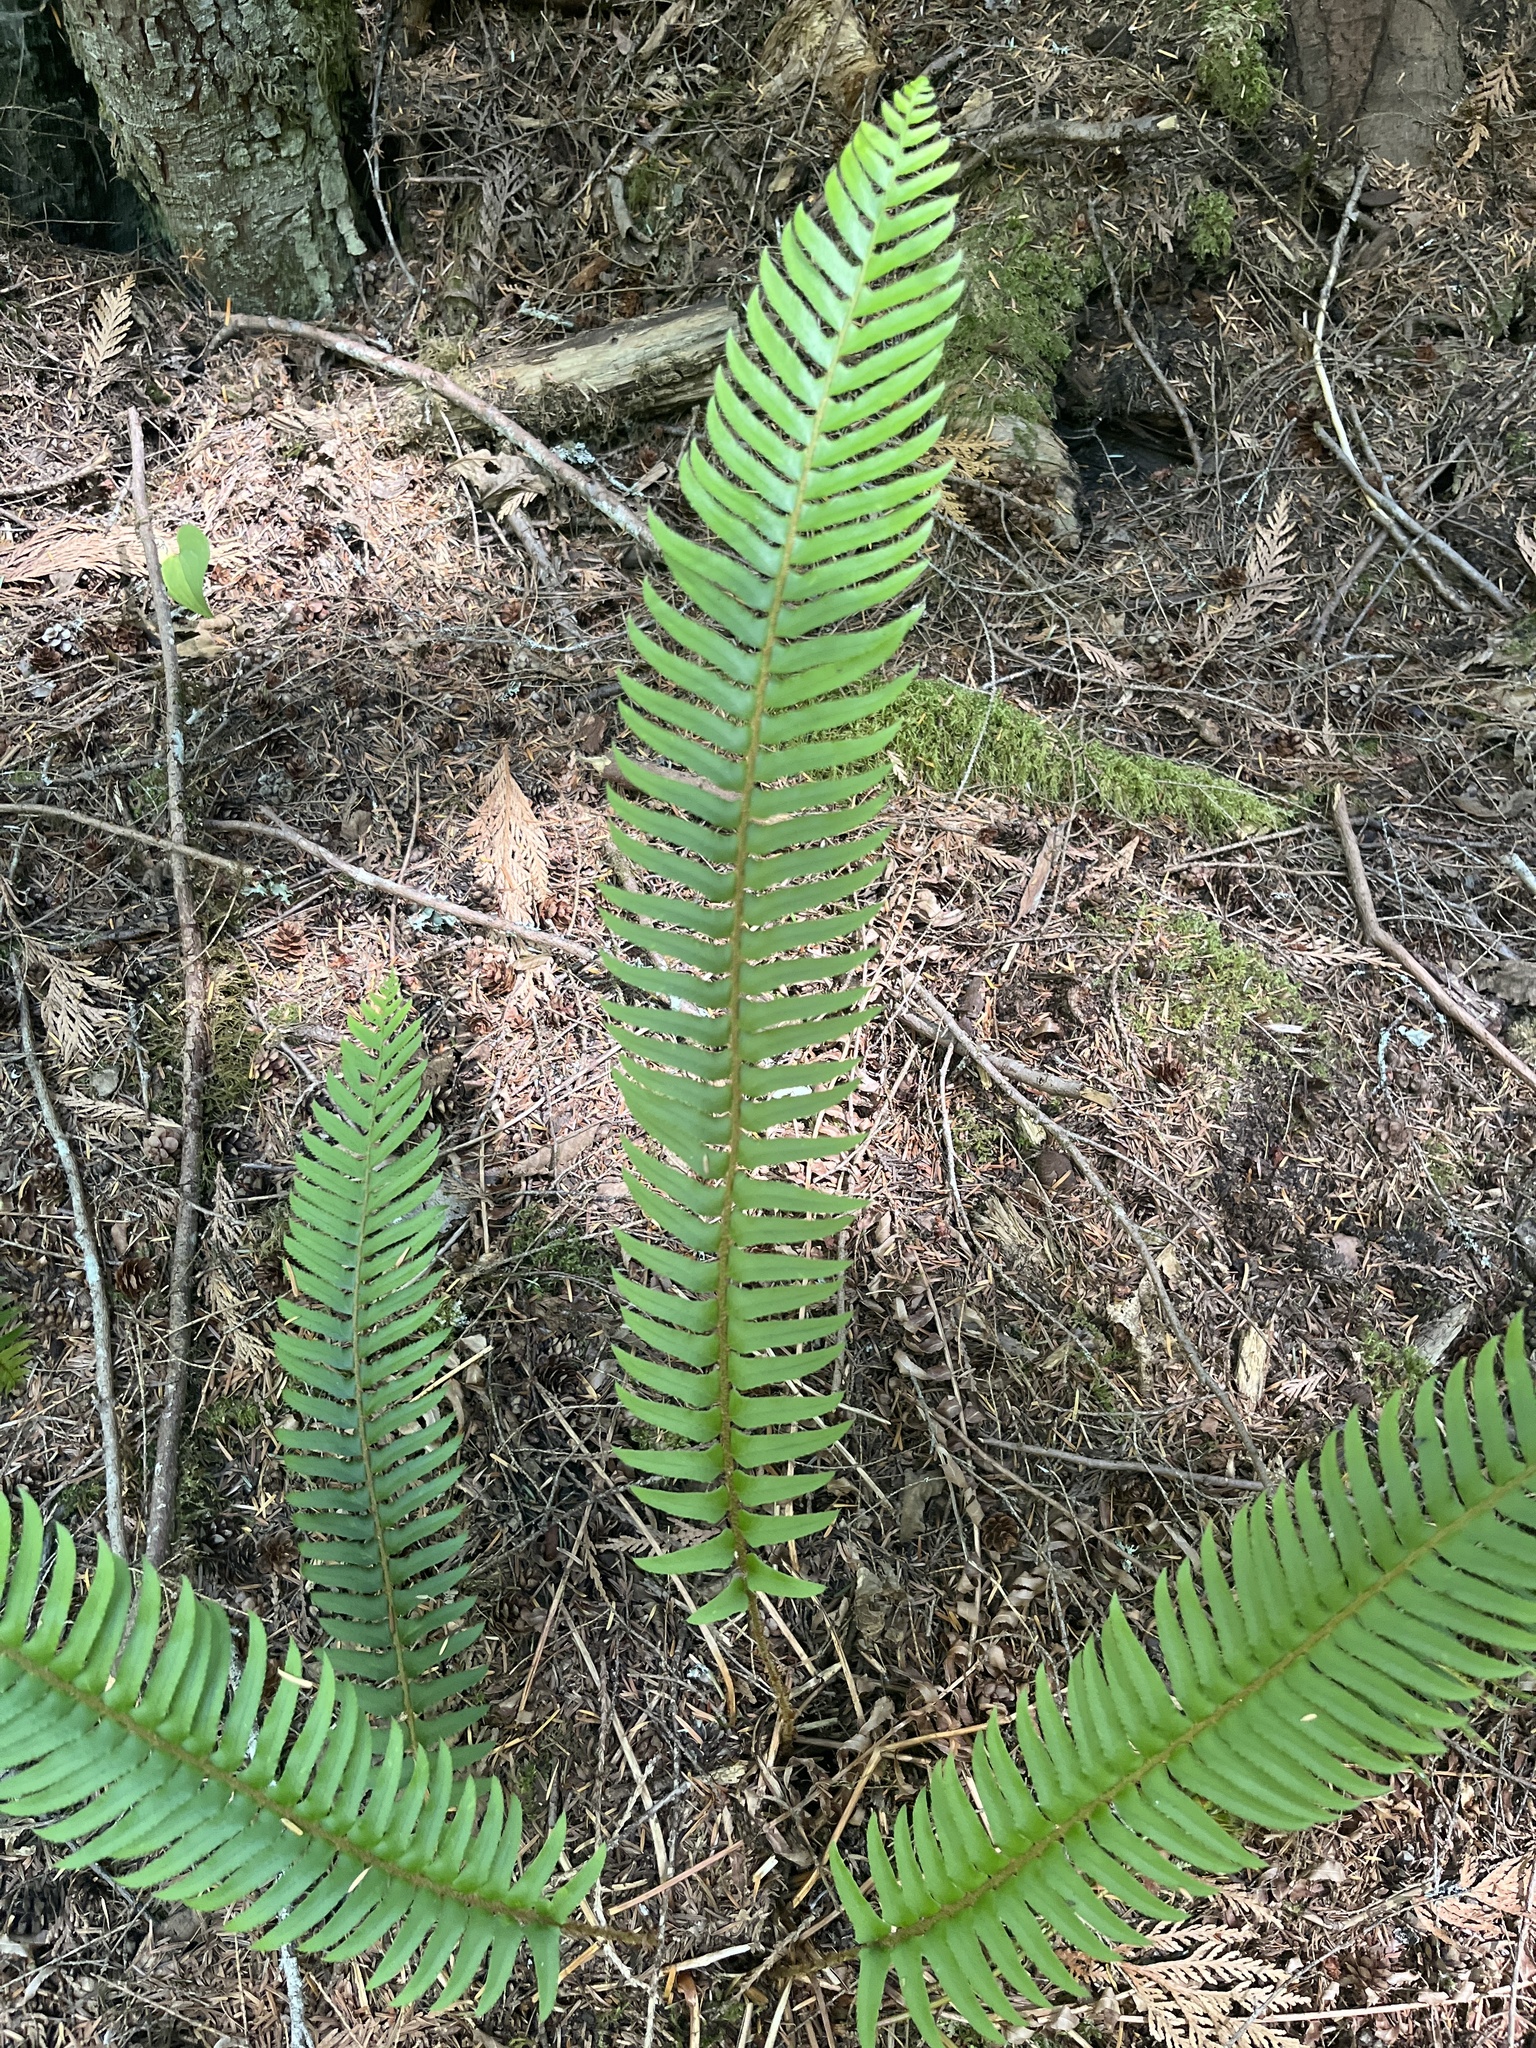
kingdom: Plantae
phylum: Tracheophyta
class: Polypodiopsida
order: Polypodiales
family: Dryopteridaceae
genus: Polystichum
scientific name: Polystichum munitum
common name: Western sword-fern
